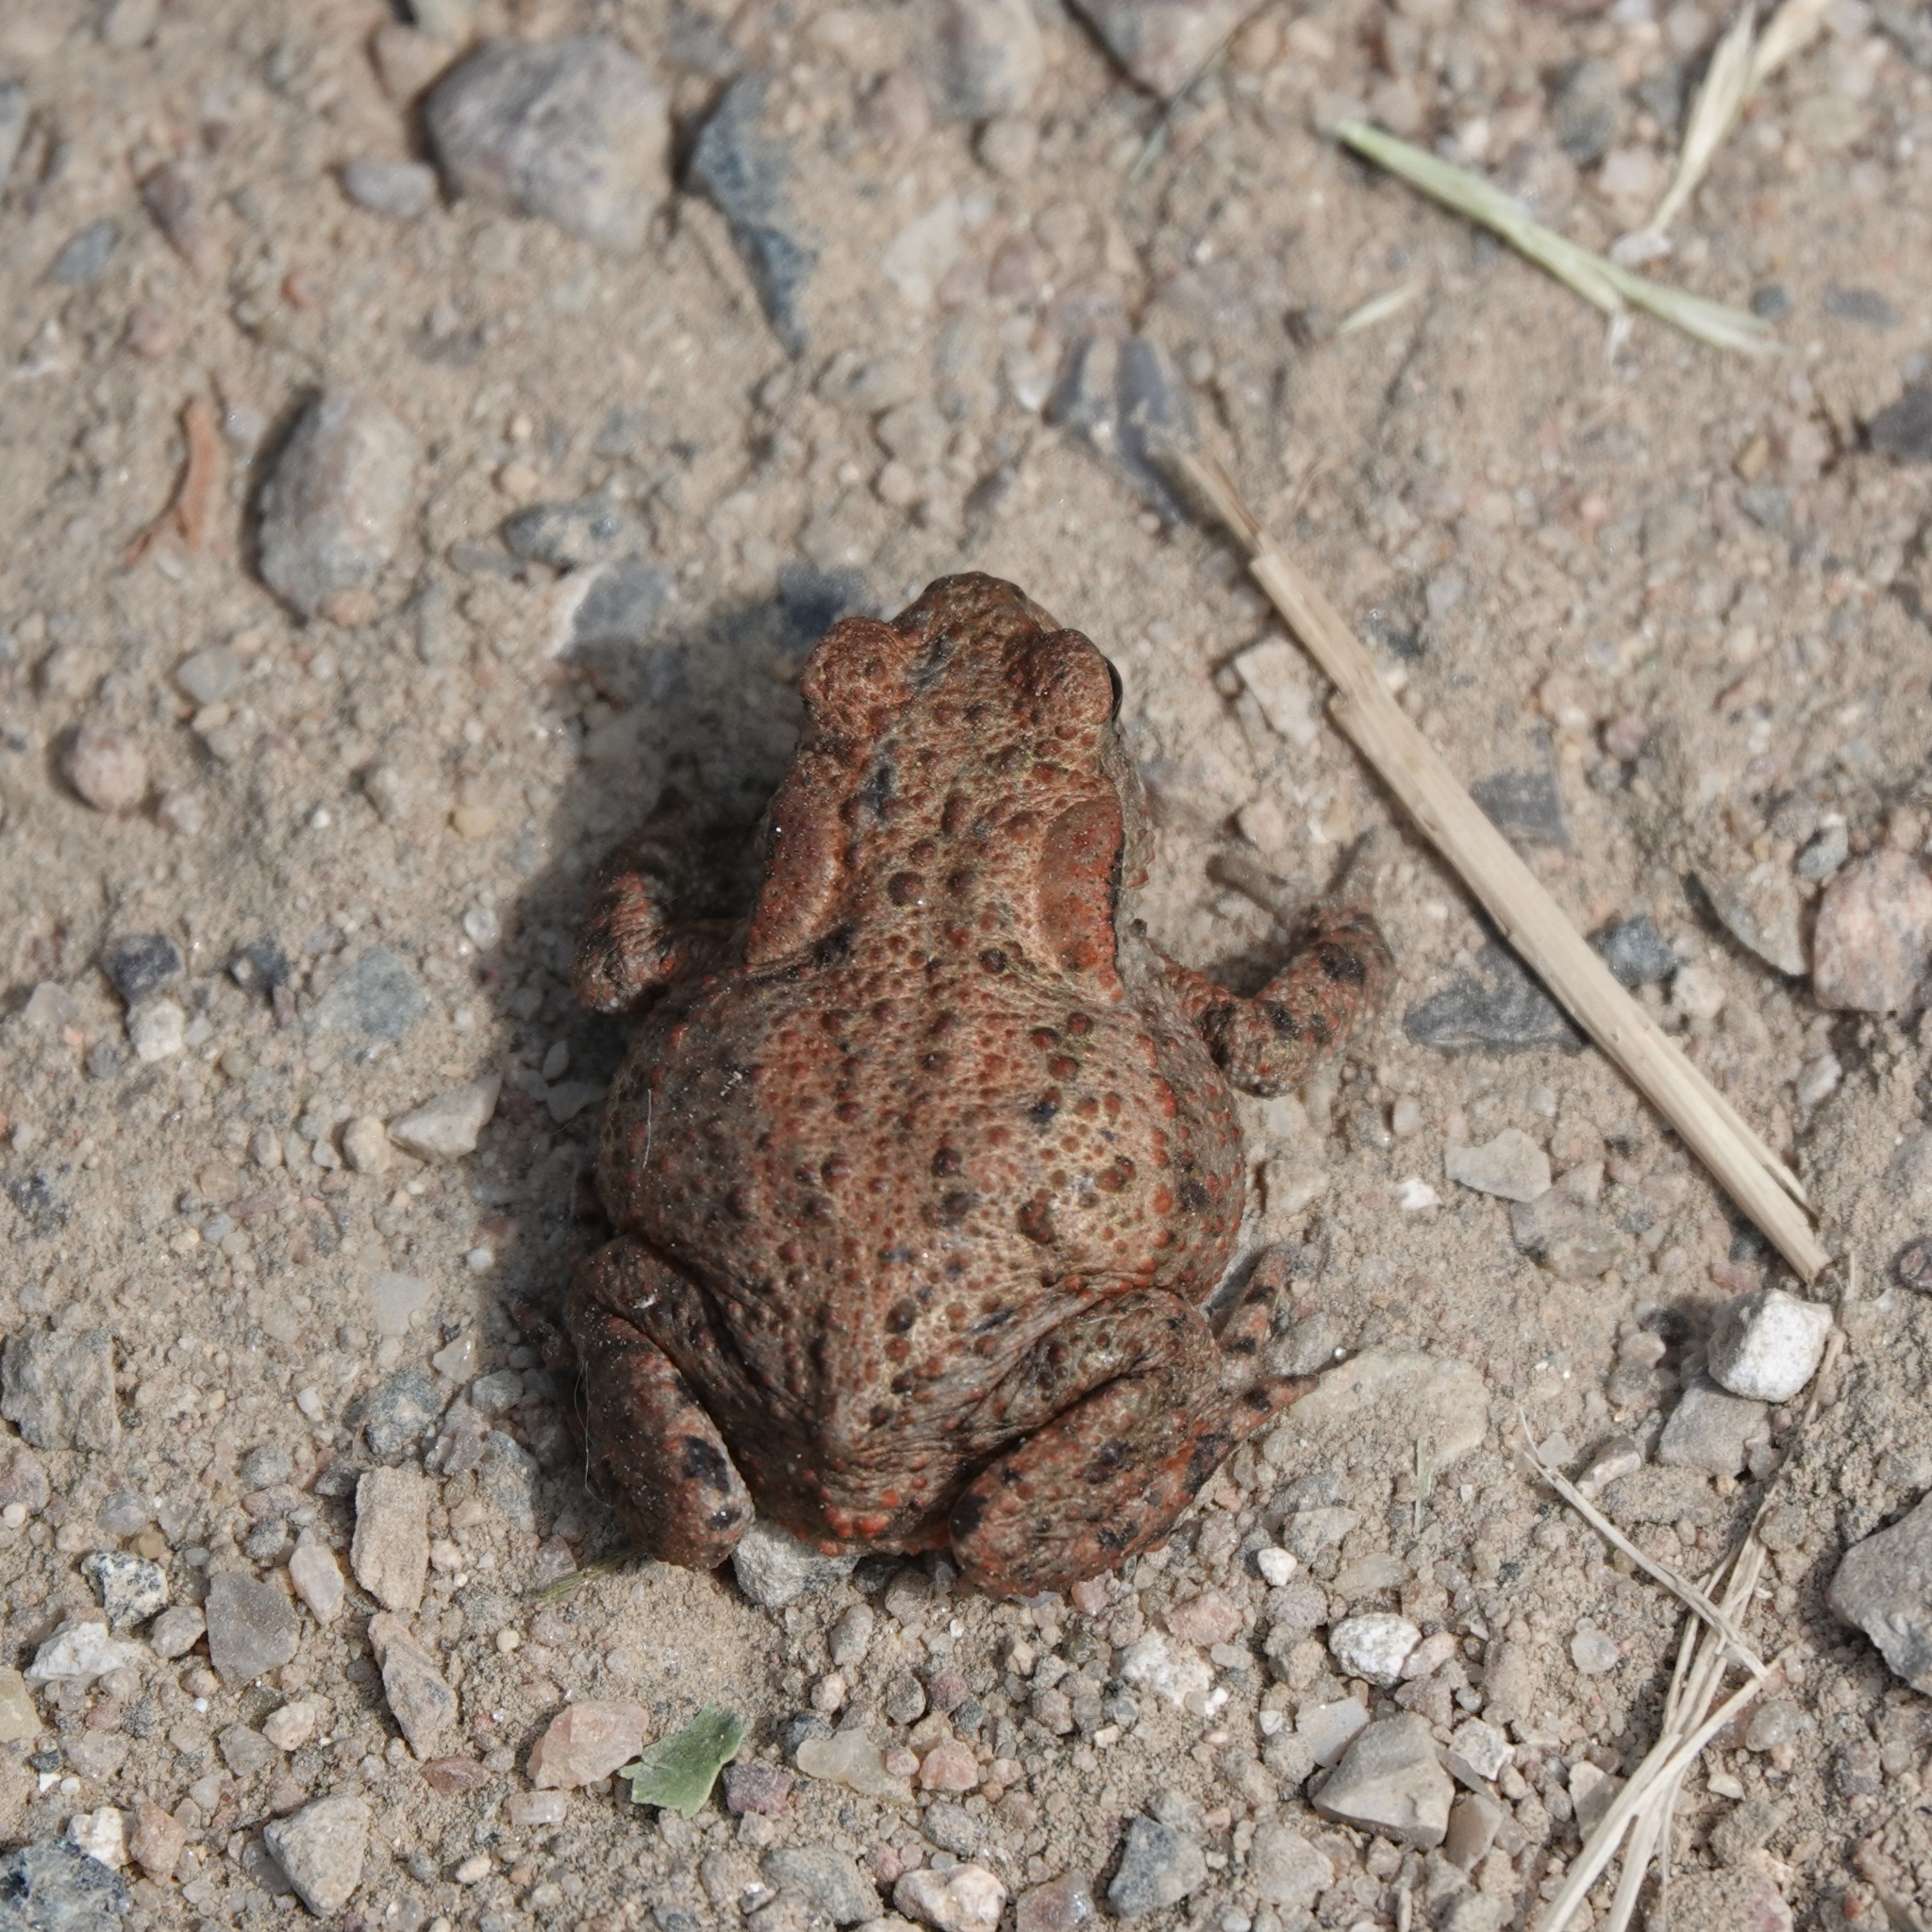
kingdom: Animalia
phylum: Chordata
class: Amphibia
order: Anura
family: Bufonidae
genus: Bufo
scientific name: Bufo bufo
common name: Common toad
